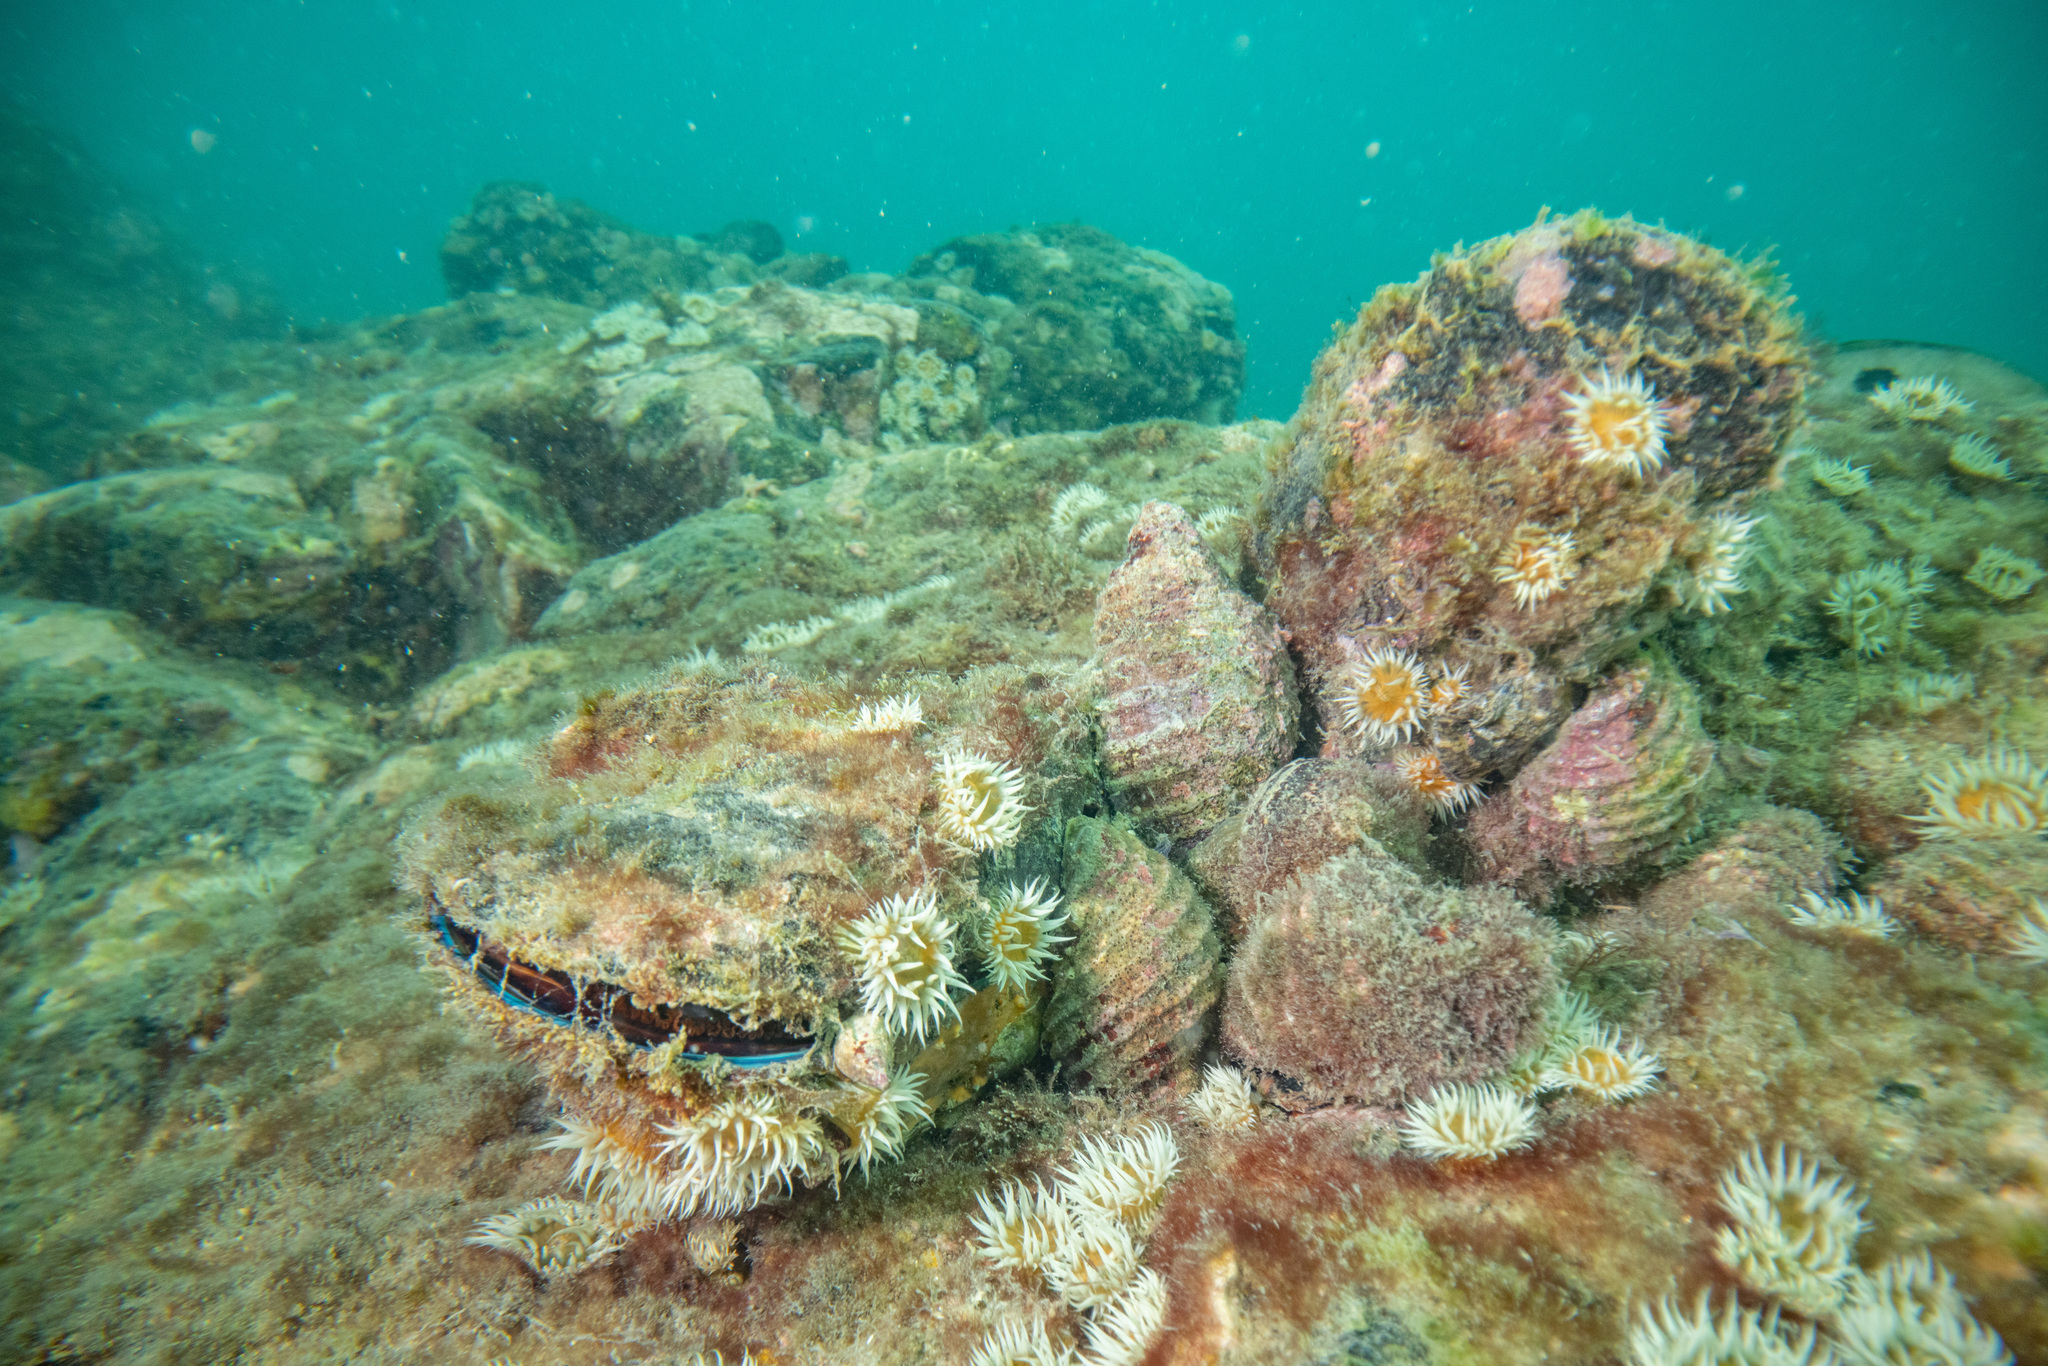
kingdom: Animalia
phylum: Mollusca
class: Gastropoda
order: Neogastropoda
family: Muricidae
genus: Dicathais
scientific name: Dicathais orbita
